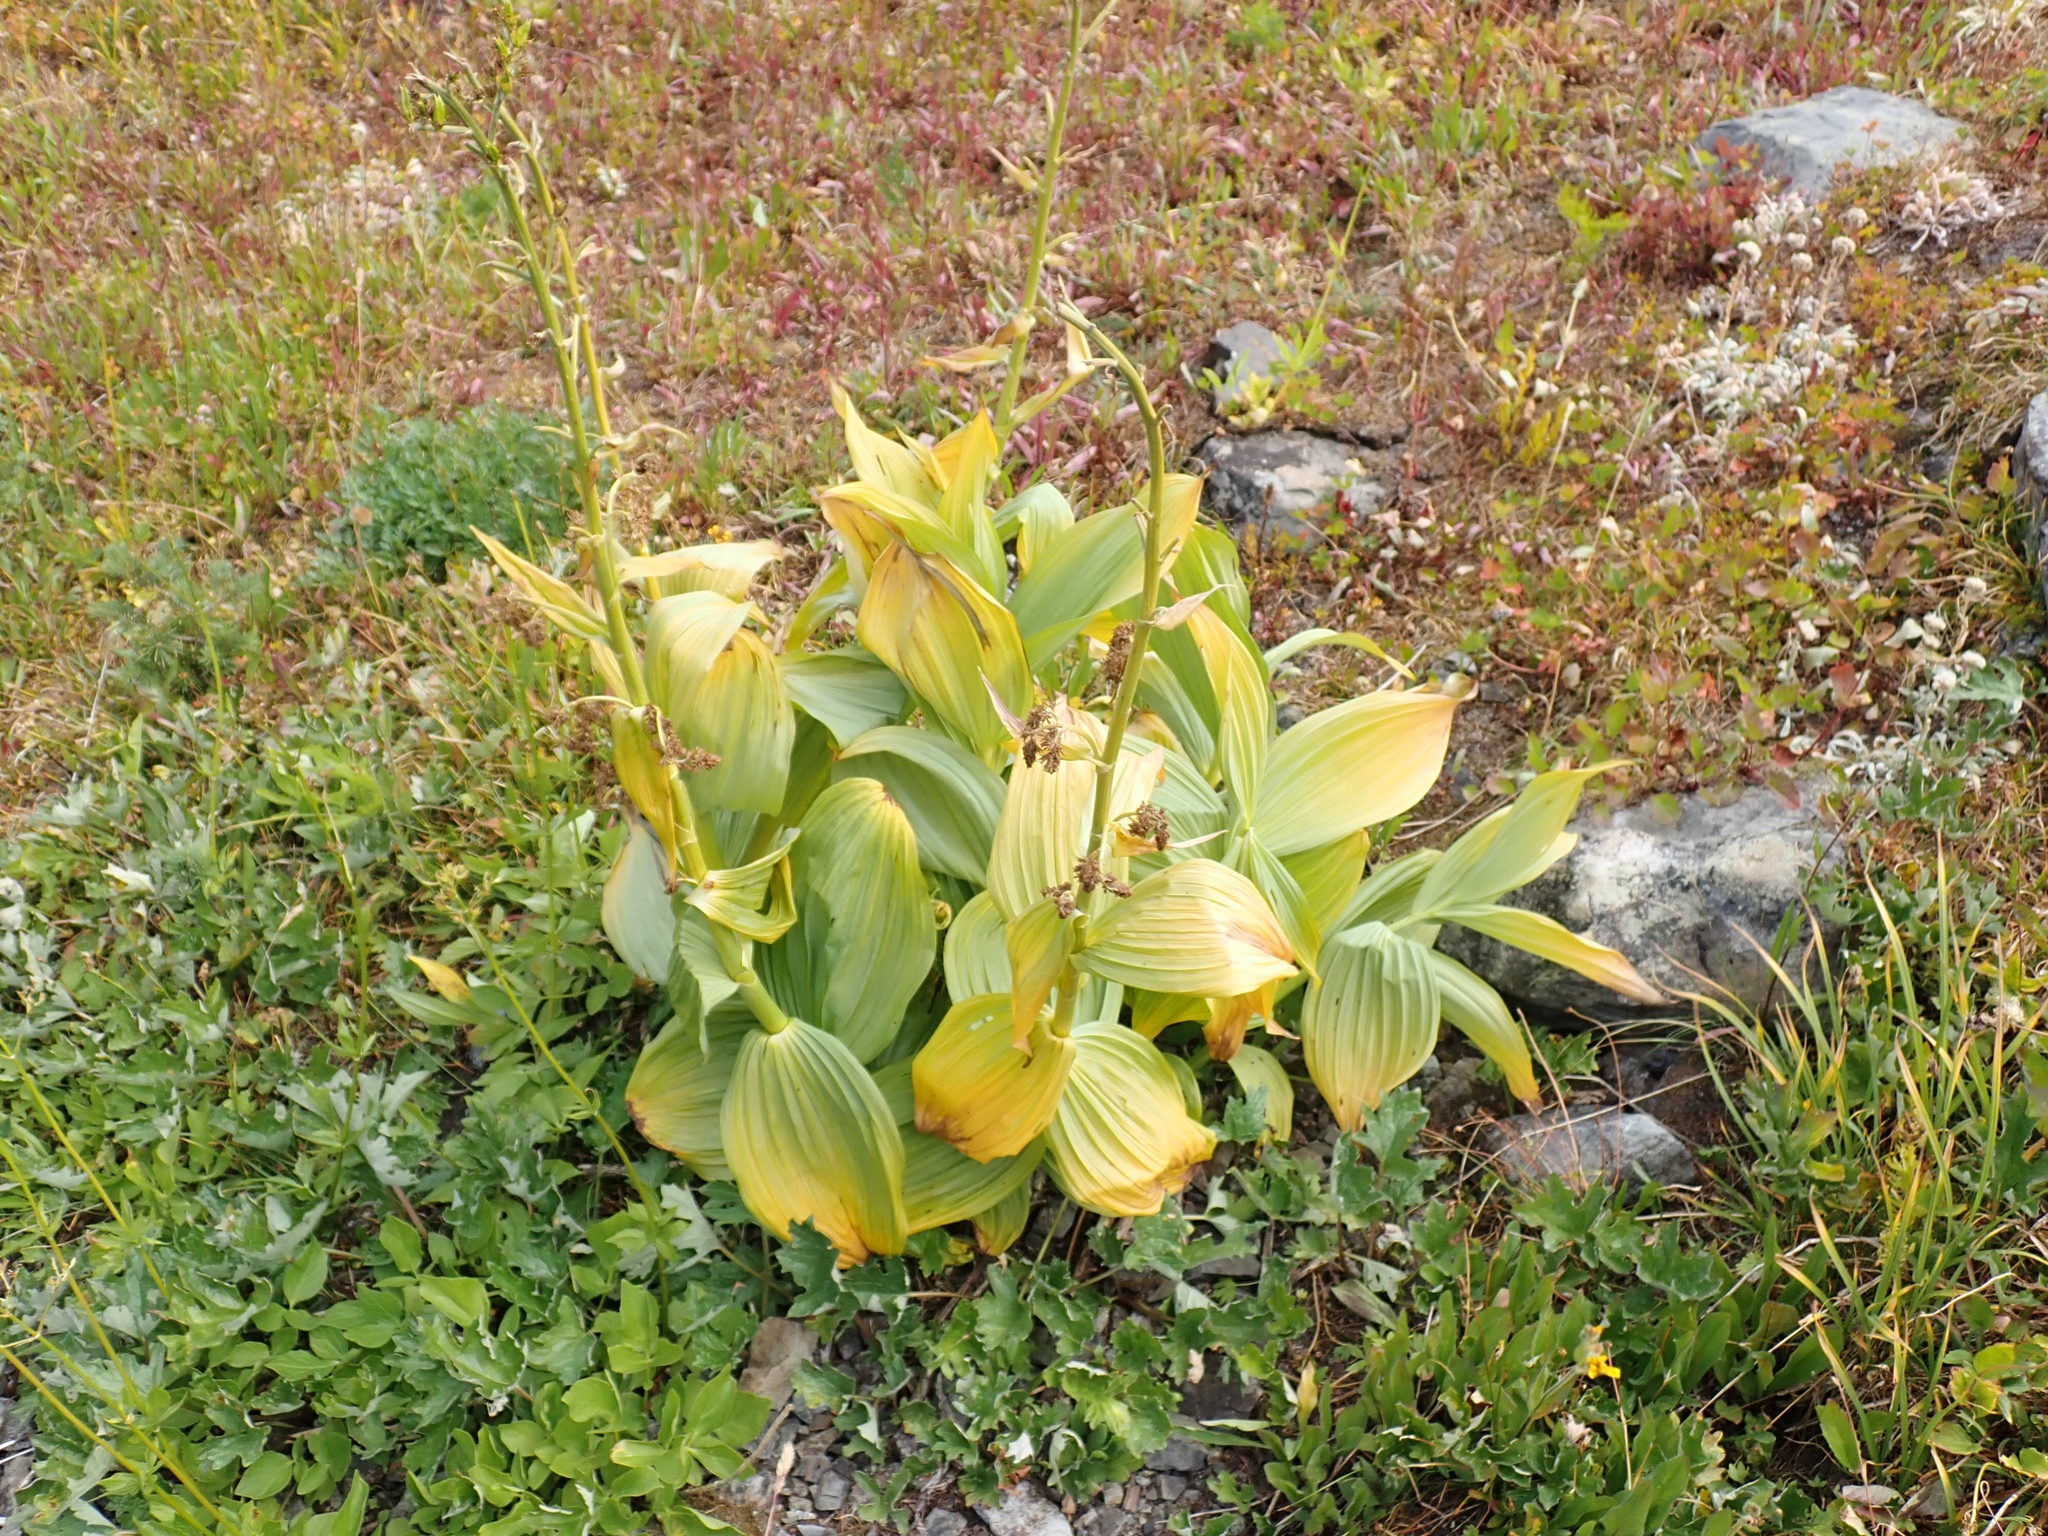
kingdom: Plantae
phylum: Tracheophyta
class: Liliopsida
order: Liliales
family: Melanthiaceae
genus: Veratrum
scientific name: Veratrum viride
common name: American false hellebore
